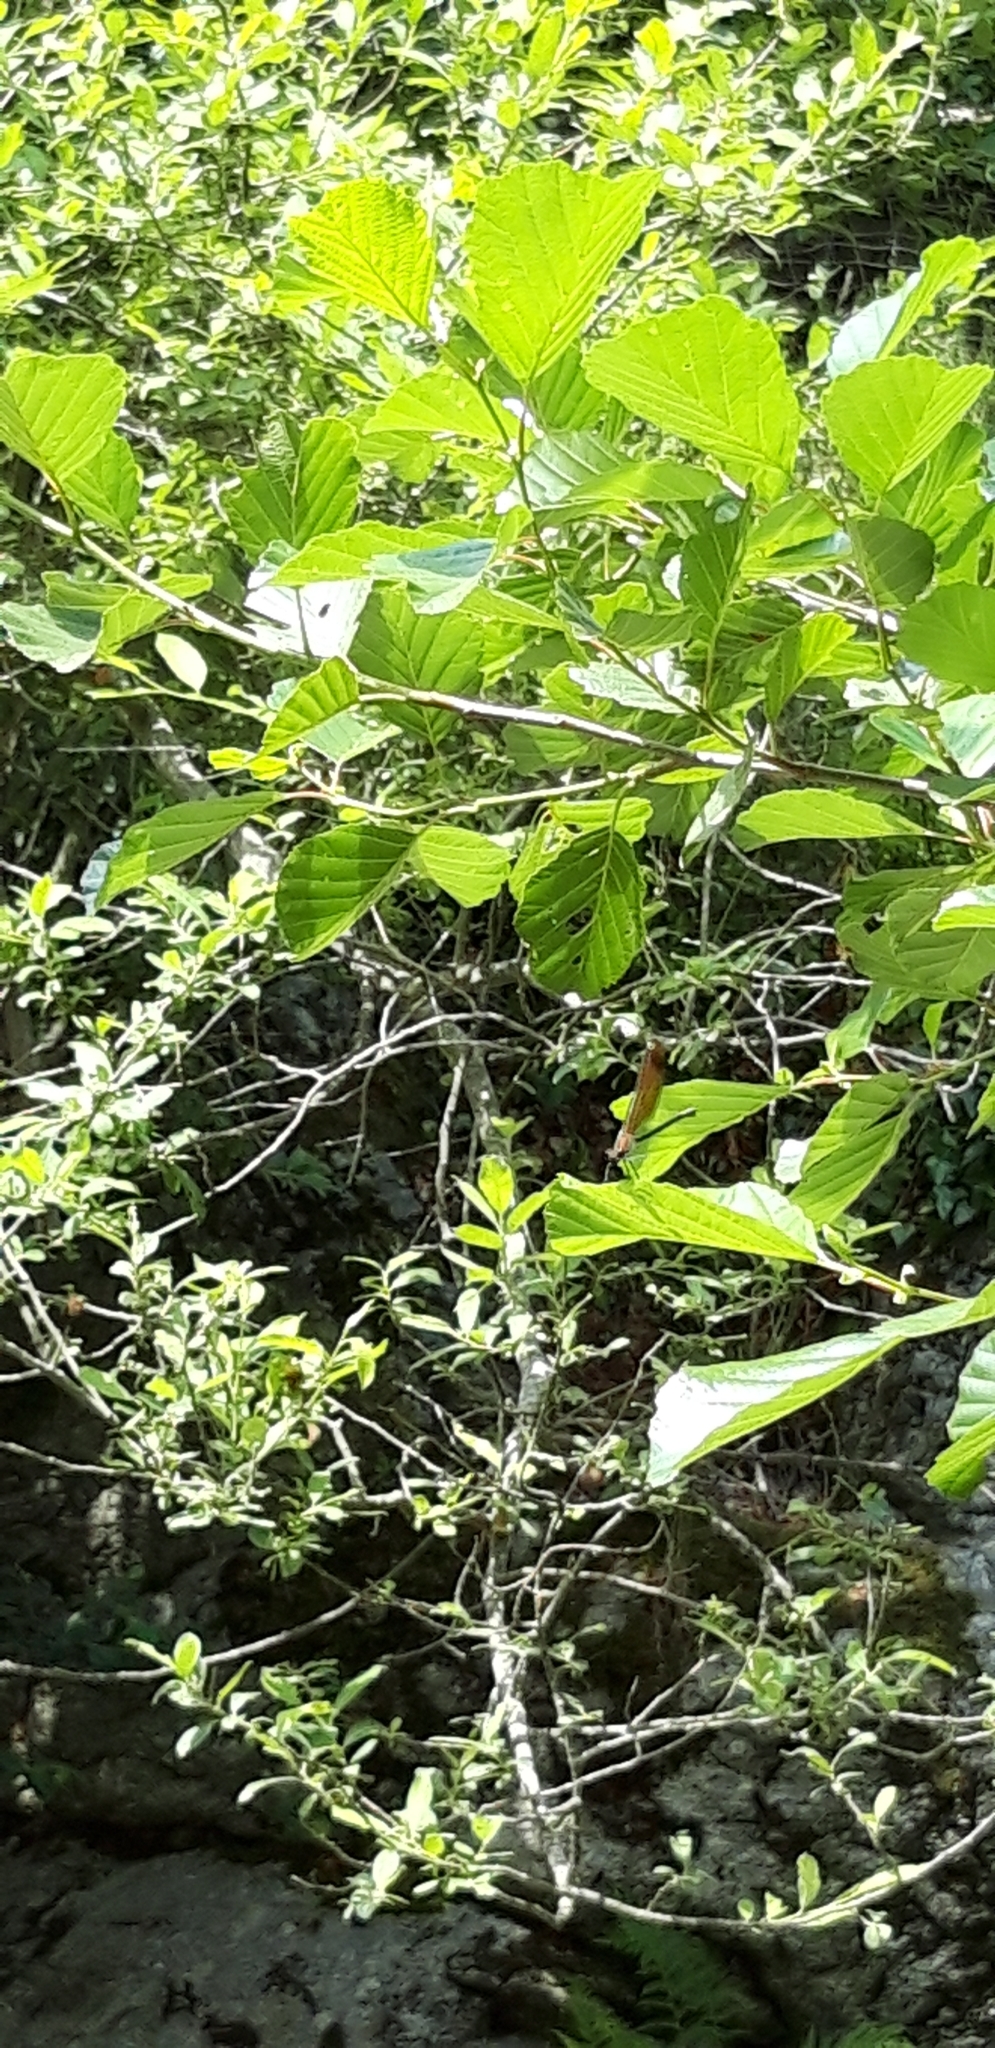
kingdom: Animalia
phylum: Arthropoda
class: Insecta
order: Odonata
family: Calopterygidae
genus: Calopteryx
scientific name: Calopteryx haemorrhoidalis
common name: Copper demoiselle
